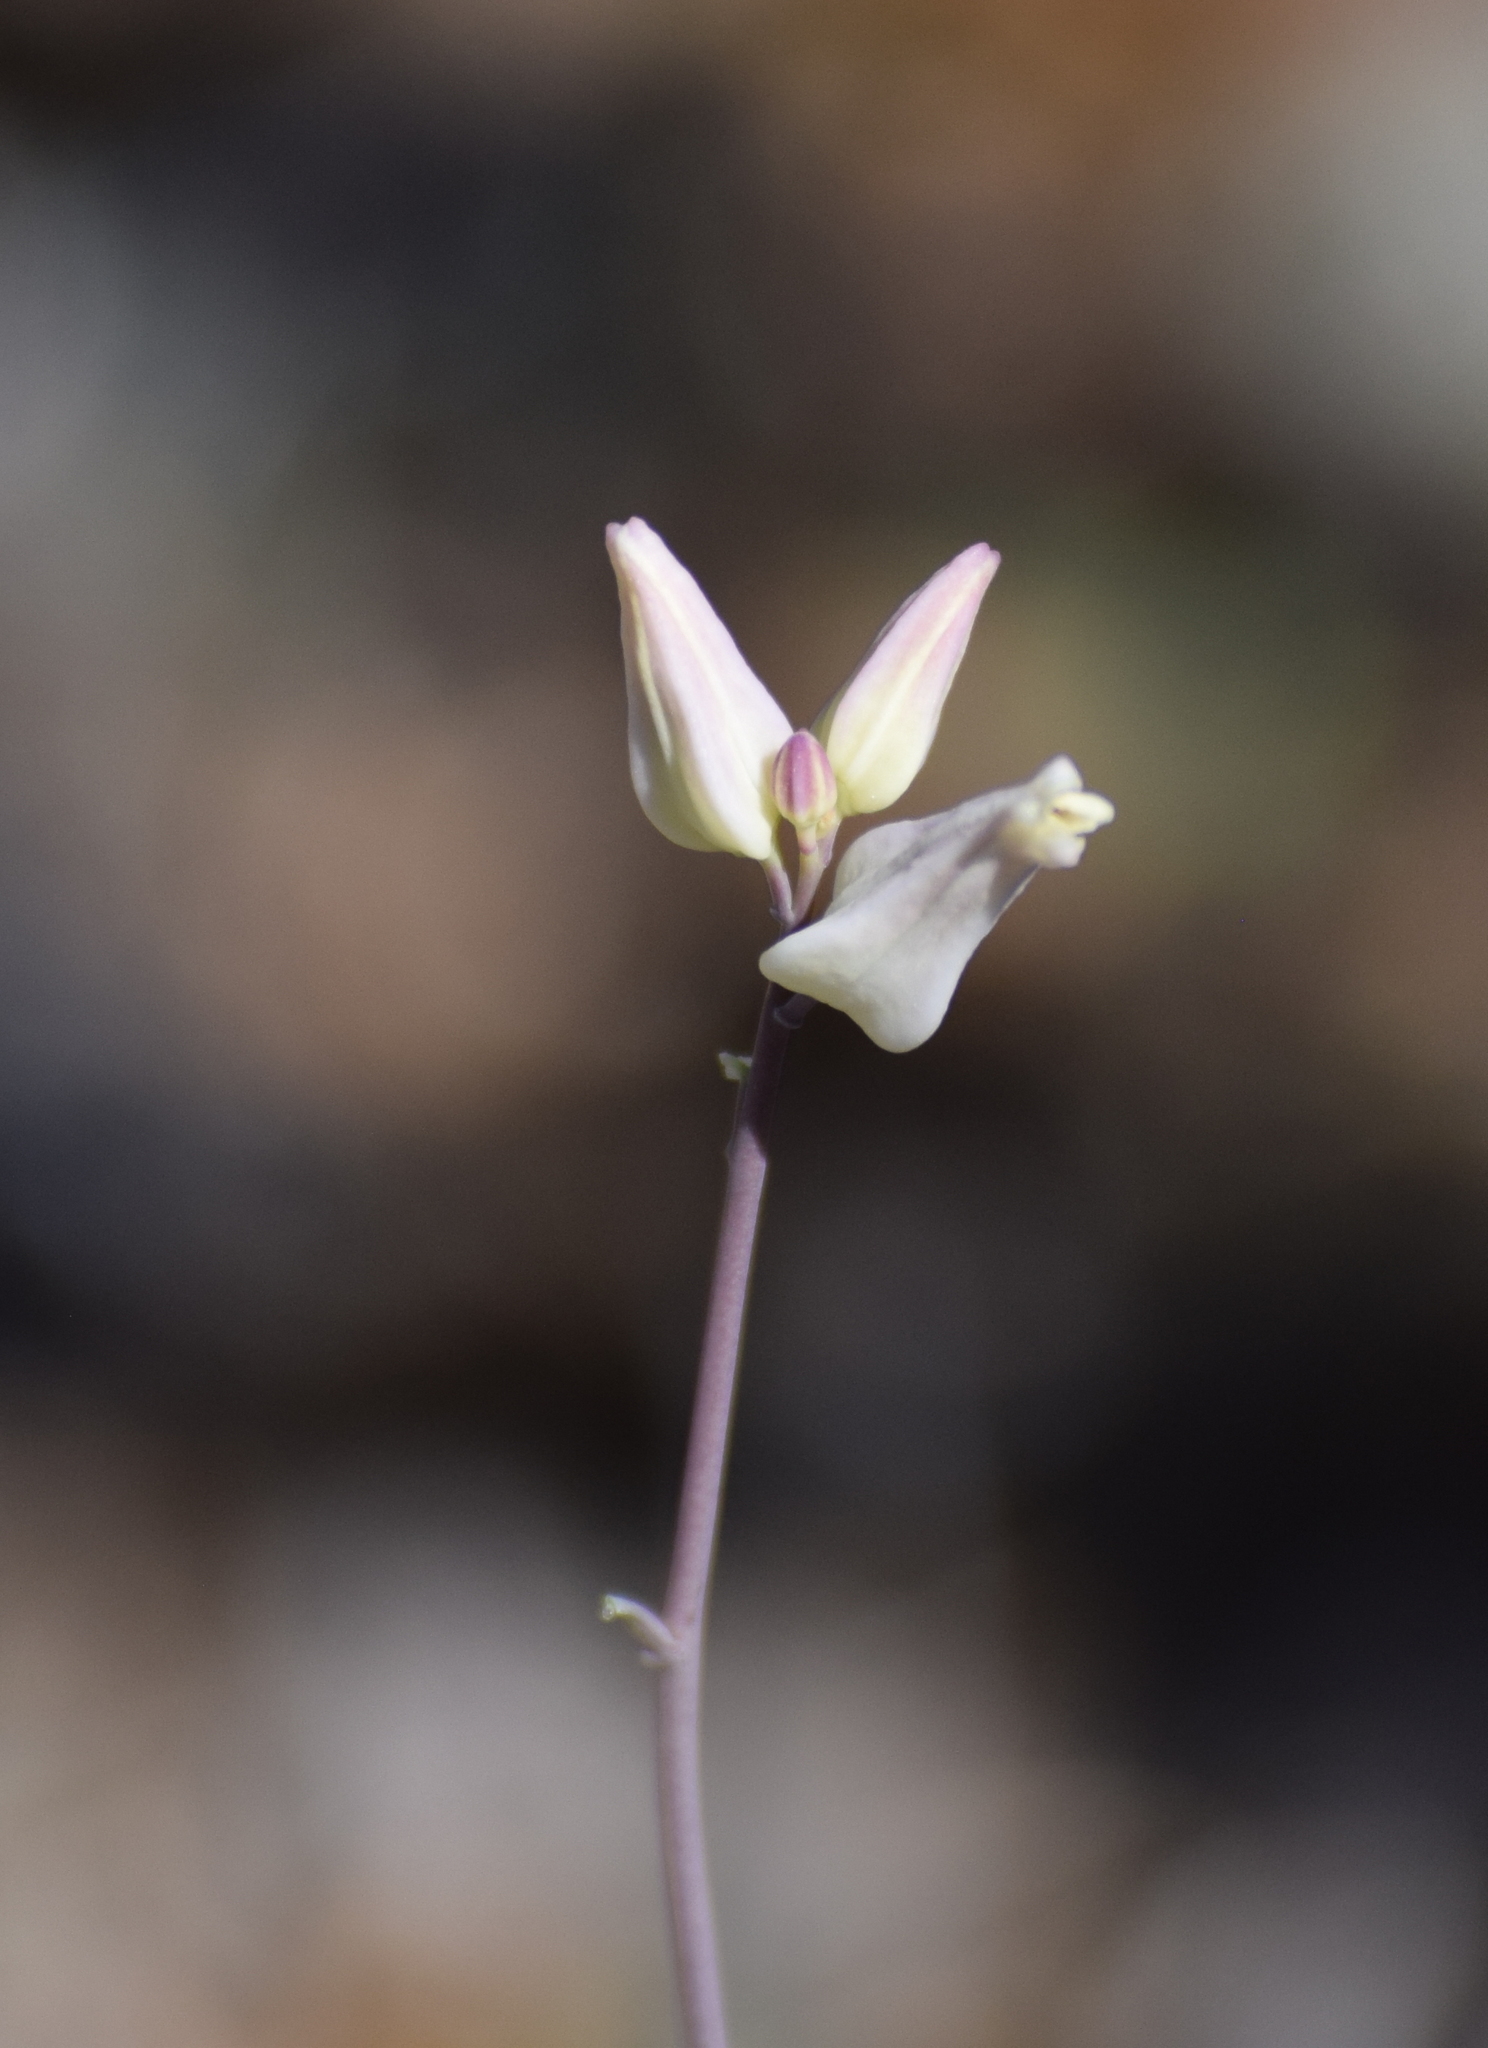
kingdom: Plantae
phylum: Tracheophyta
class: Magnoliopsida
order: Brassicales
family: Brassicaceae
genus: Streptanthus
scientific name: Streptanthus carinatus
